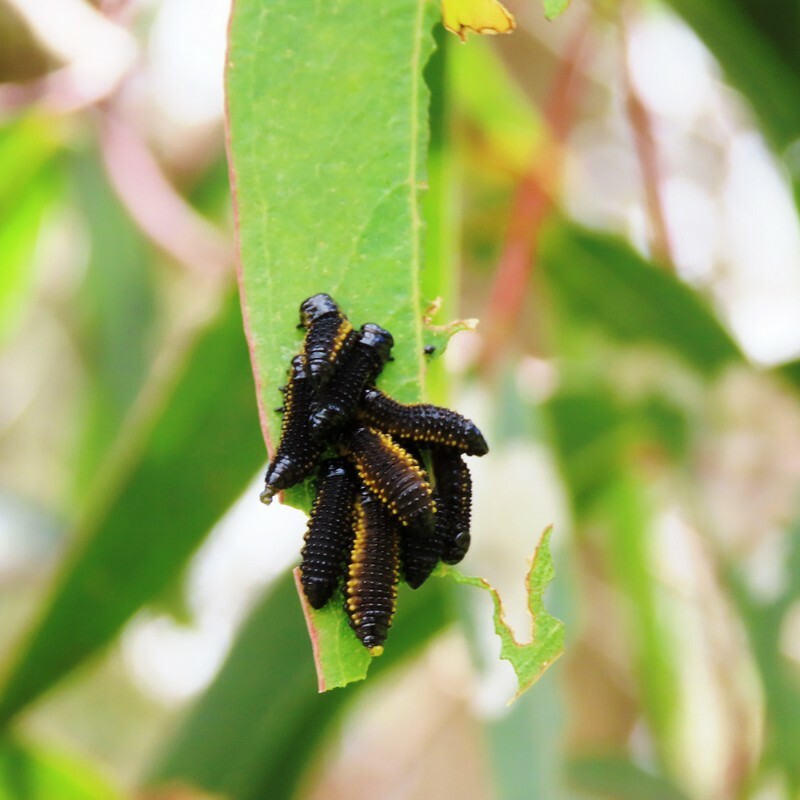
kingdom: Animalia
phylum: Arthropoda
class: Insecta
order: Coleoptera
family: Chrysomelidae
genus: Paropsis
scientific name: Paropsis
